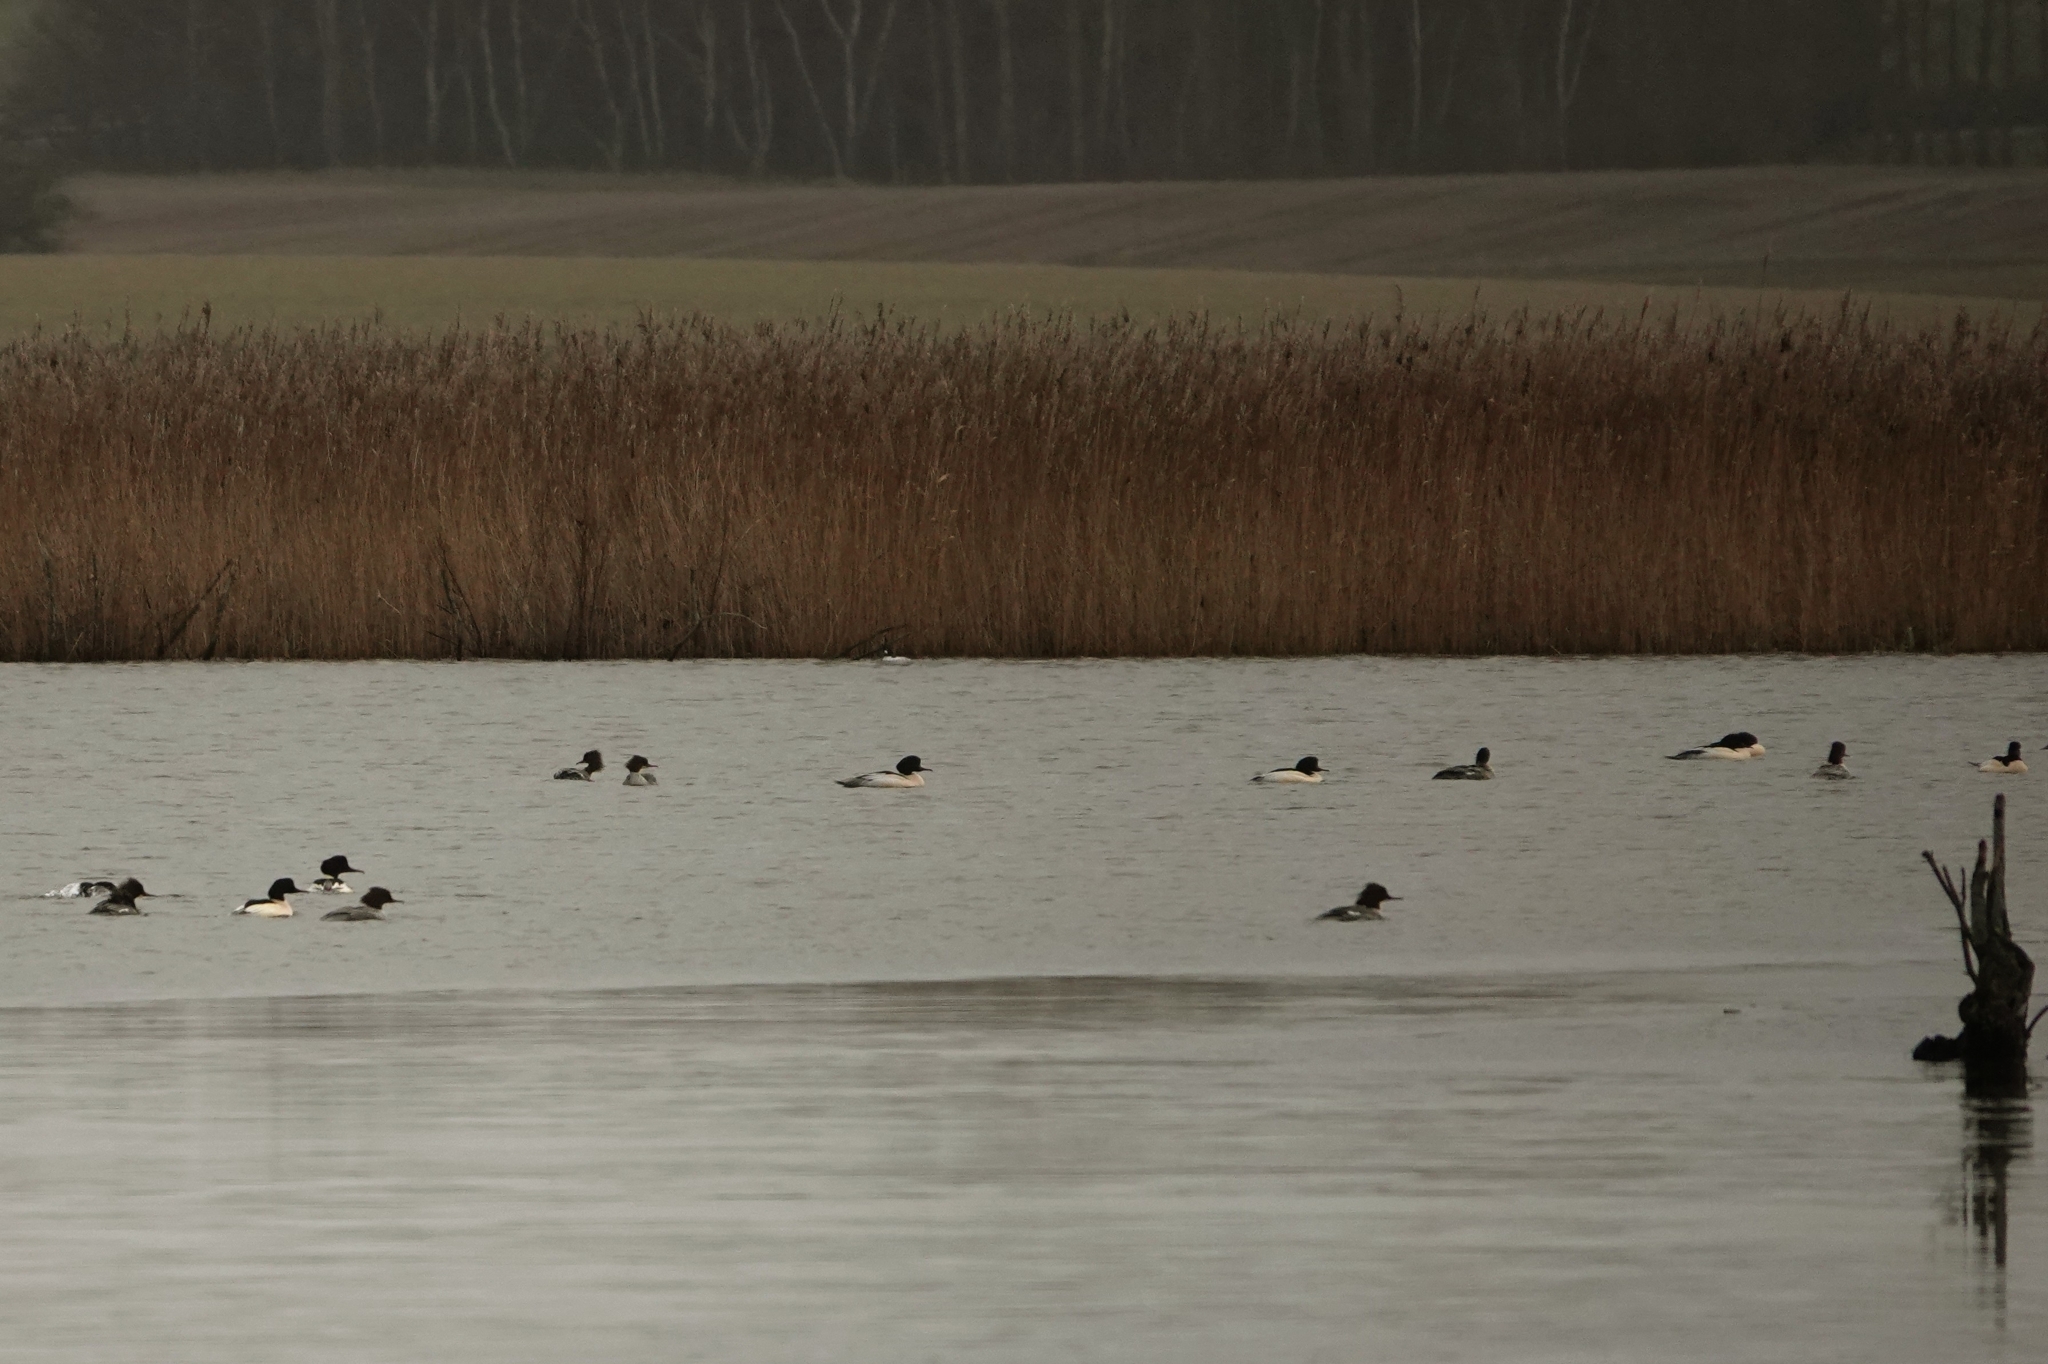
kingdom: Animalia
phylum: Chordata
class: Aves
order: Anseriformes
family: Anatidae
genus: Mergus
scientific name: Mergus merganser
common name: Common merganser
